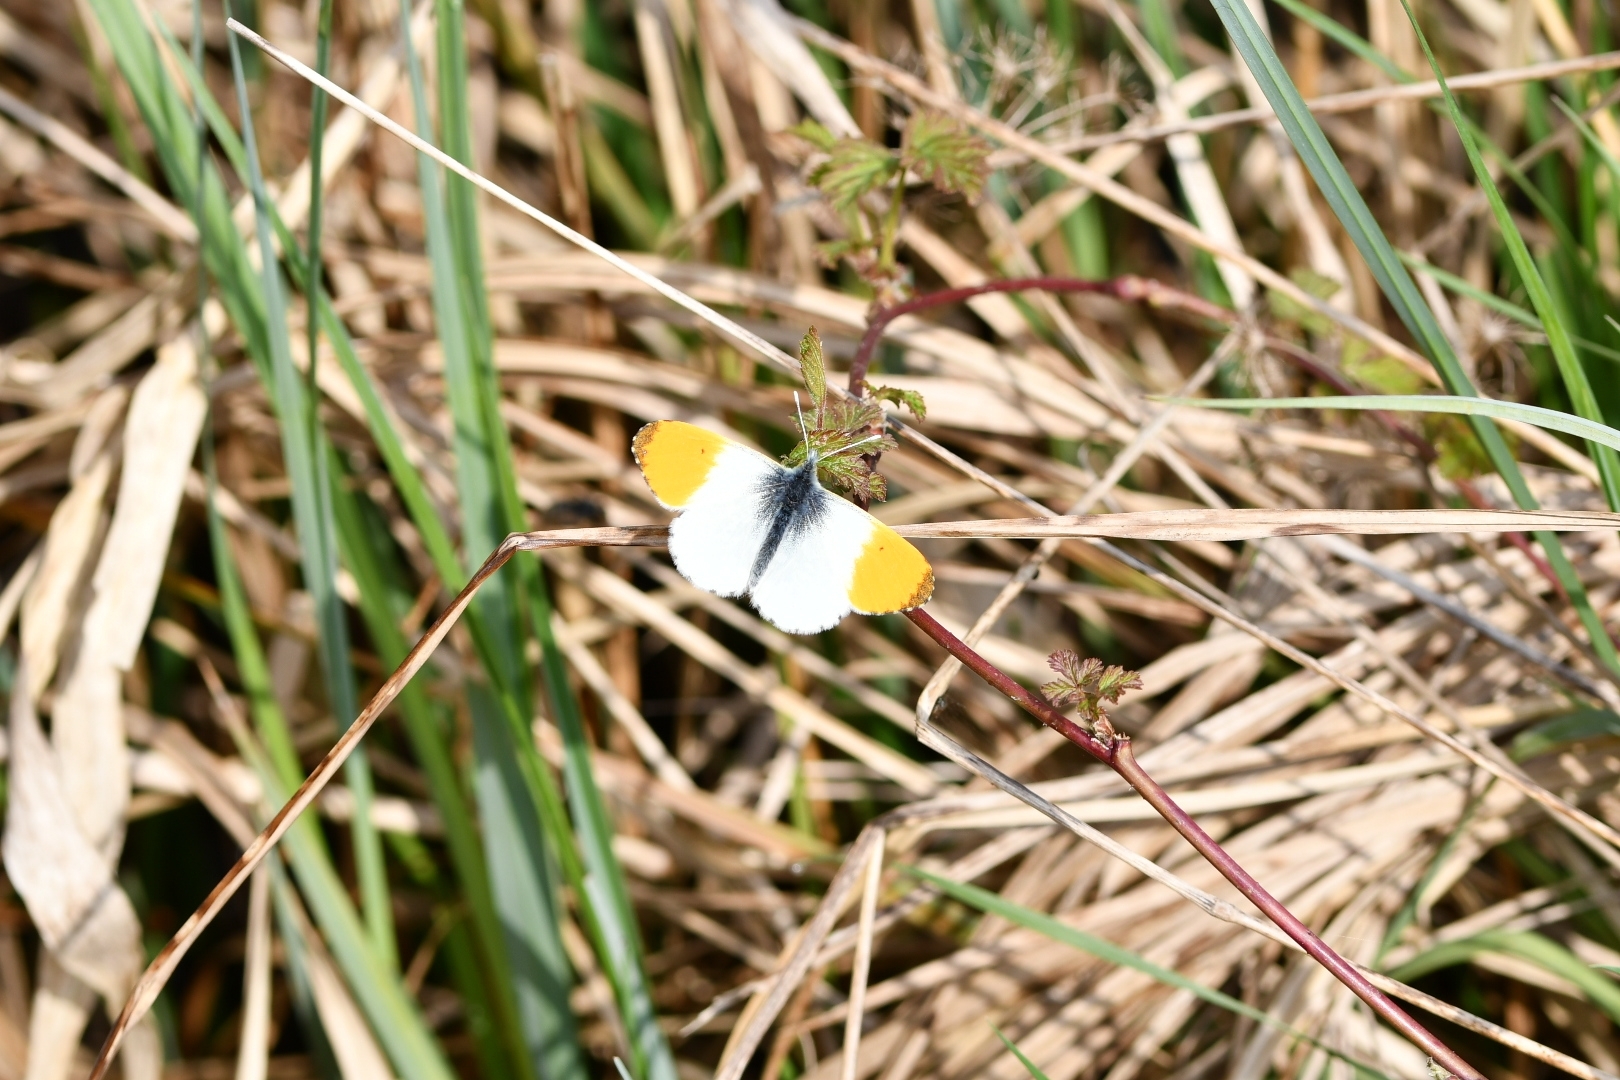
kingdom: Animalia
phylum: Arthropoda
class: Insecta
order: Lepidoptera
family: Pieridae
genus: Anthocharis
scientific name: Anthocharis cardamines
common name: Orange-tip
